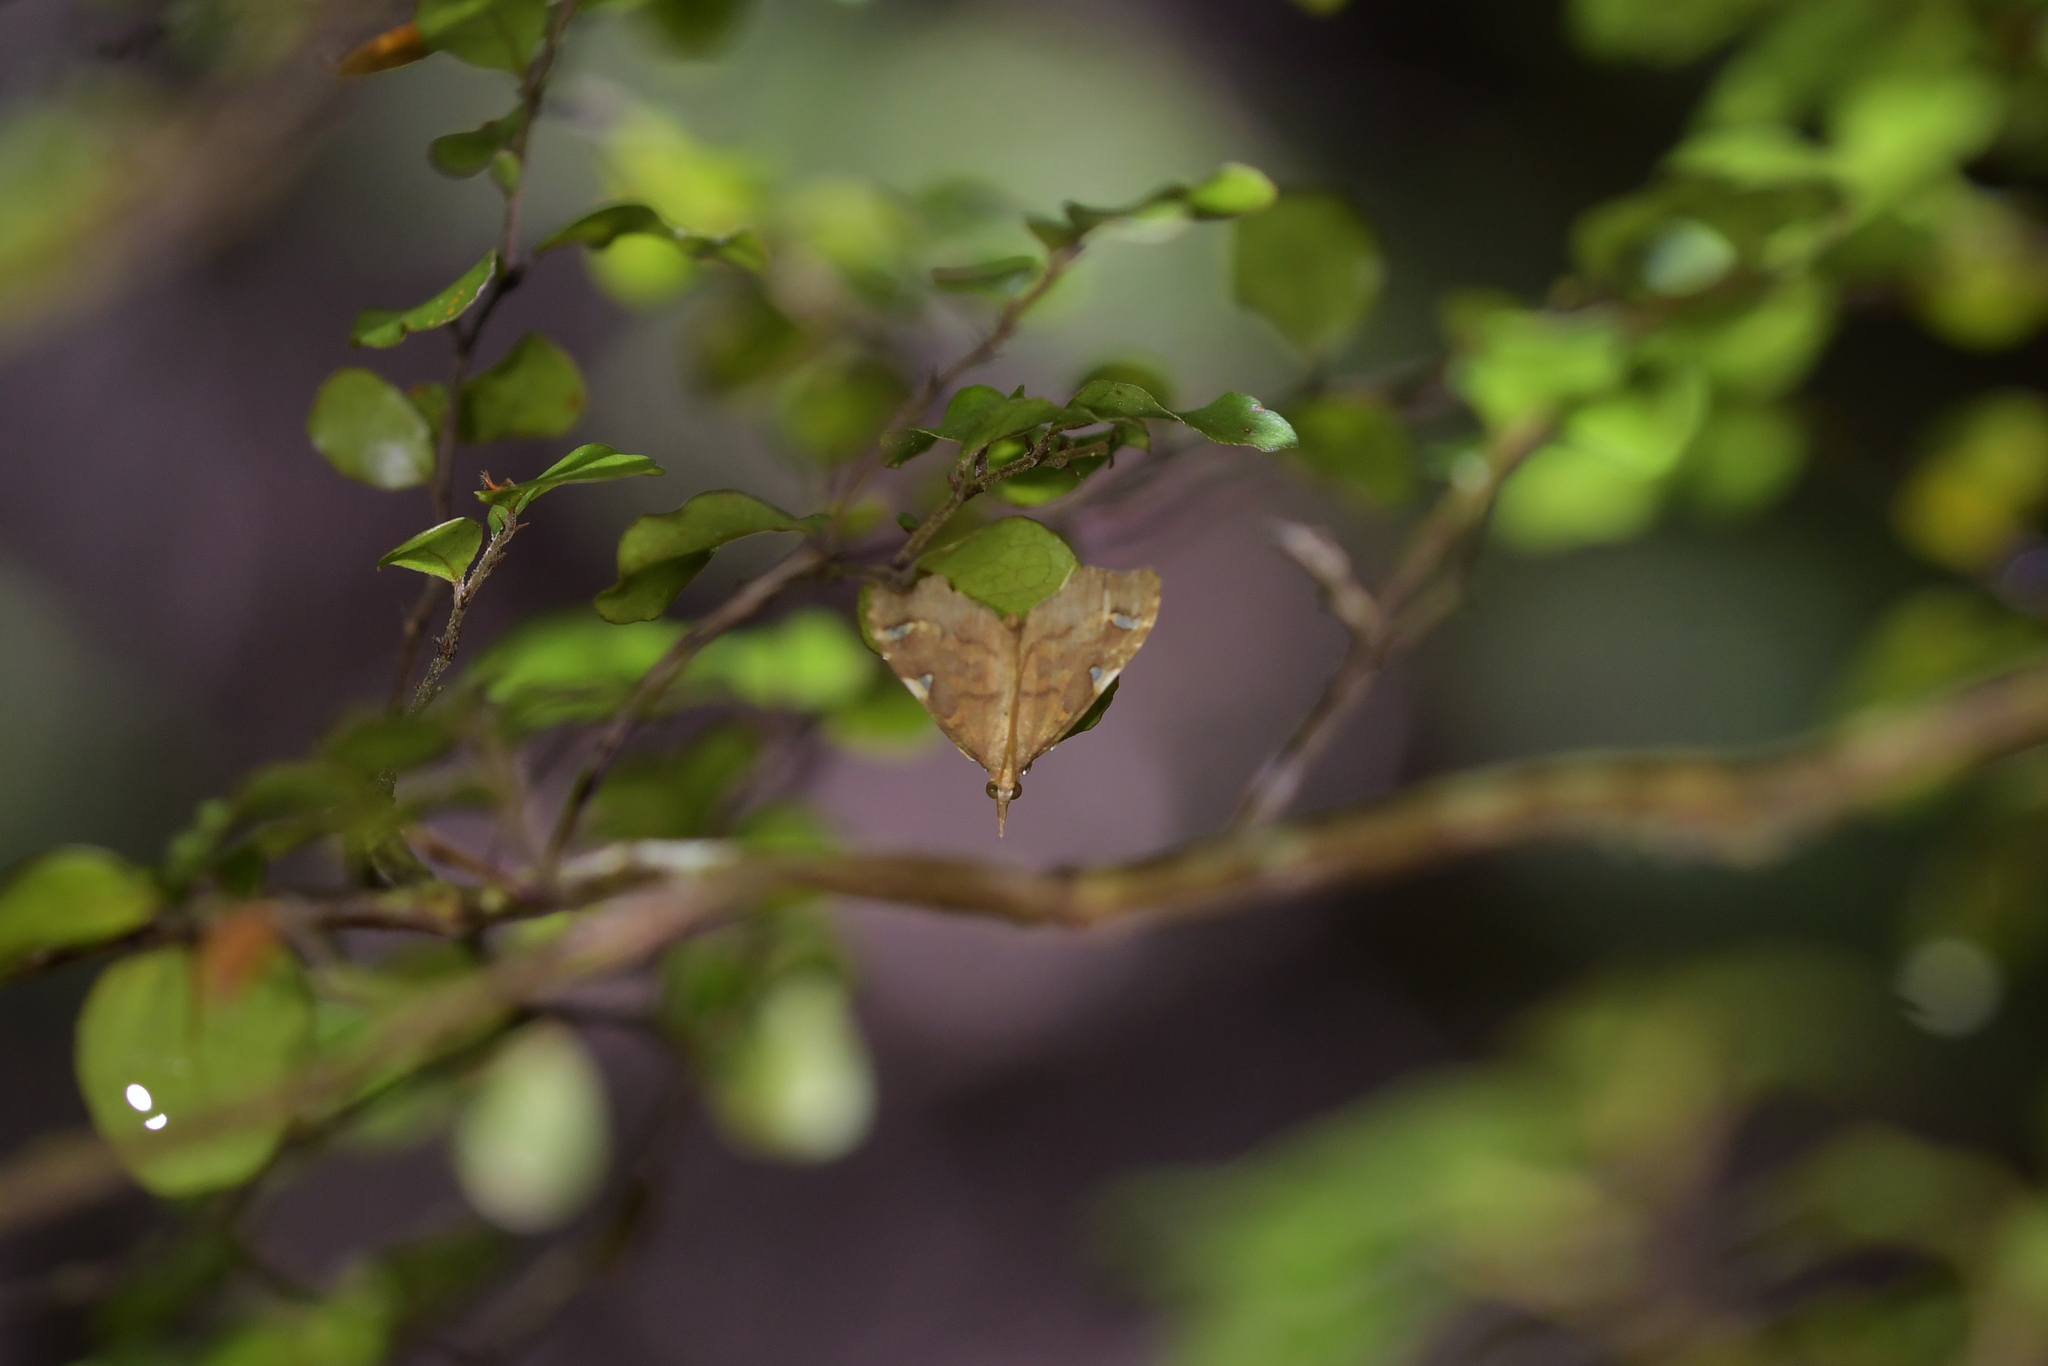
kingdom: Animalia
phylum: Arthropoda
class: Insecta
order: Lepidoptera
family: Crambidae
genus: Deana
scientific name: Deana hybreasalis
